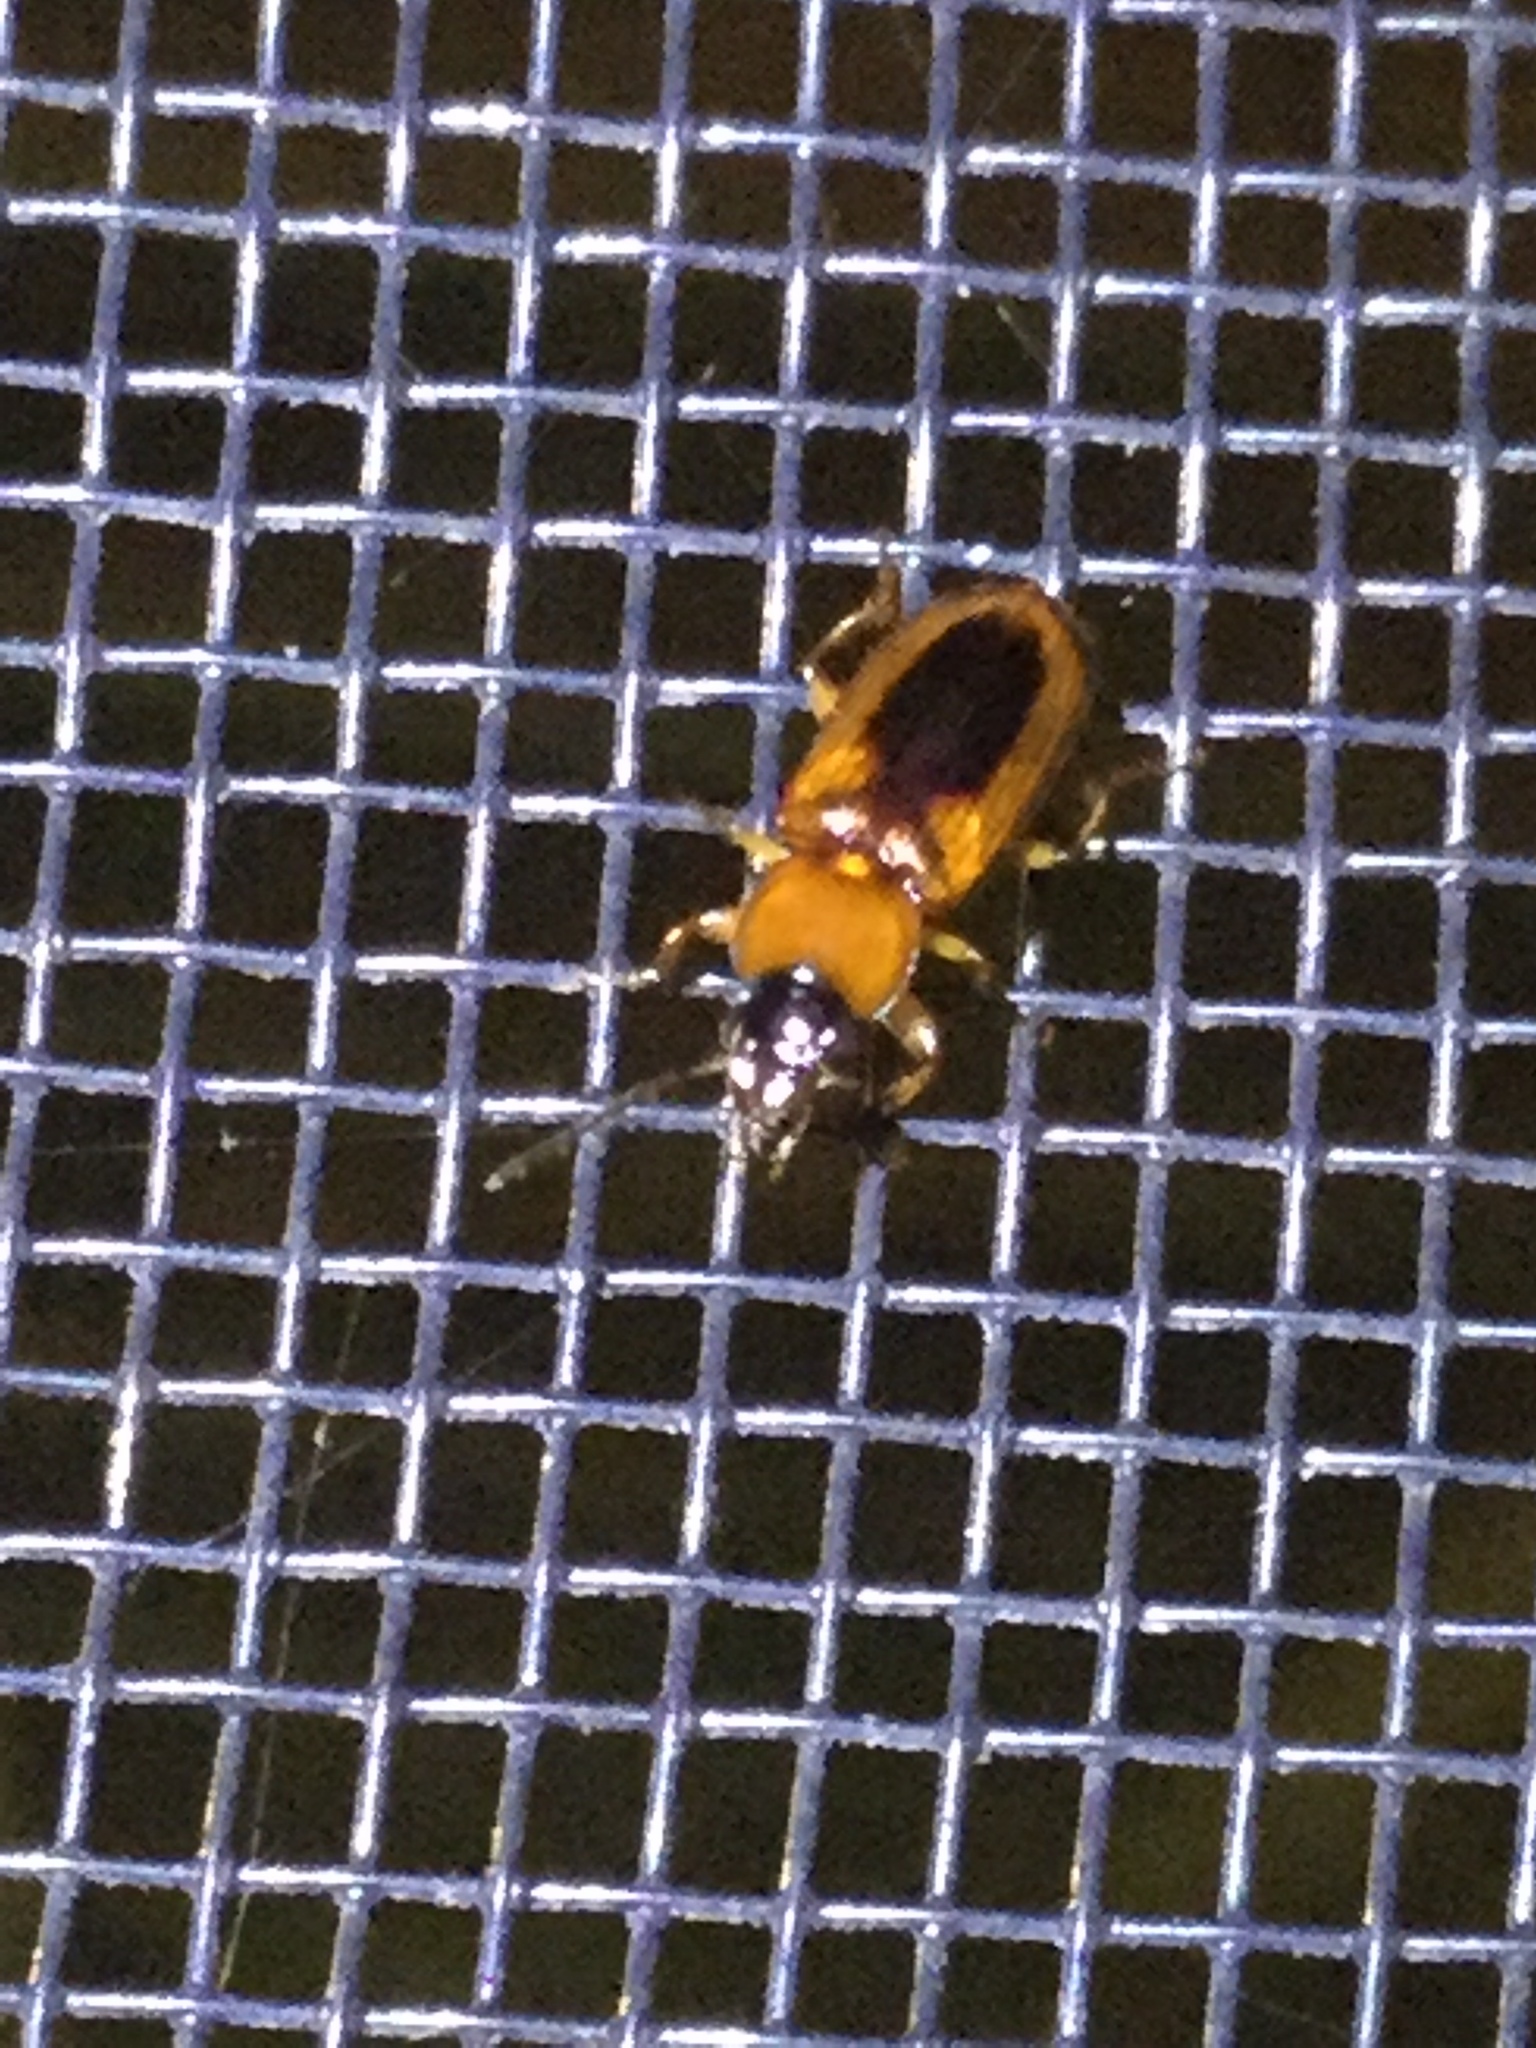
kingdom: Animalia
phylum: Arthropoda
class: Insecta
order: Coleoptera
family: Carabidae
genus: Stenolophus
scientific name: Stenolophus lecontei
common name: Leconte's seedcorn beetle
